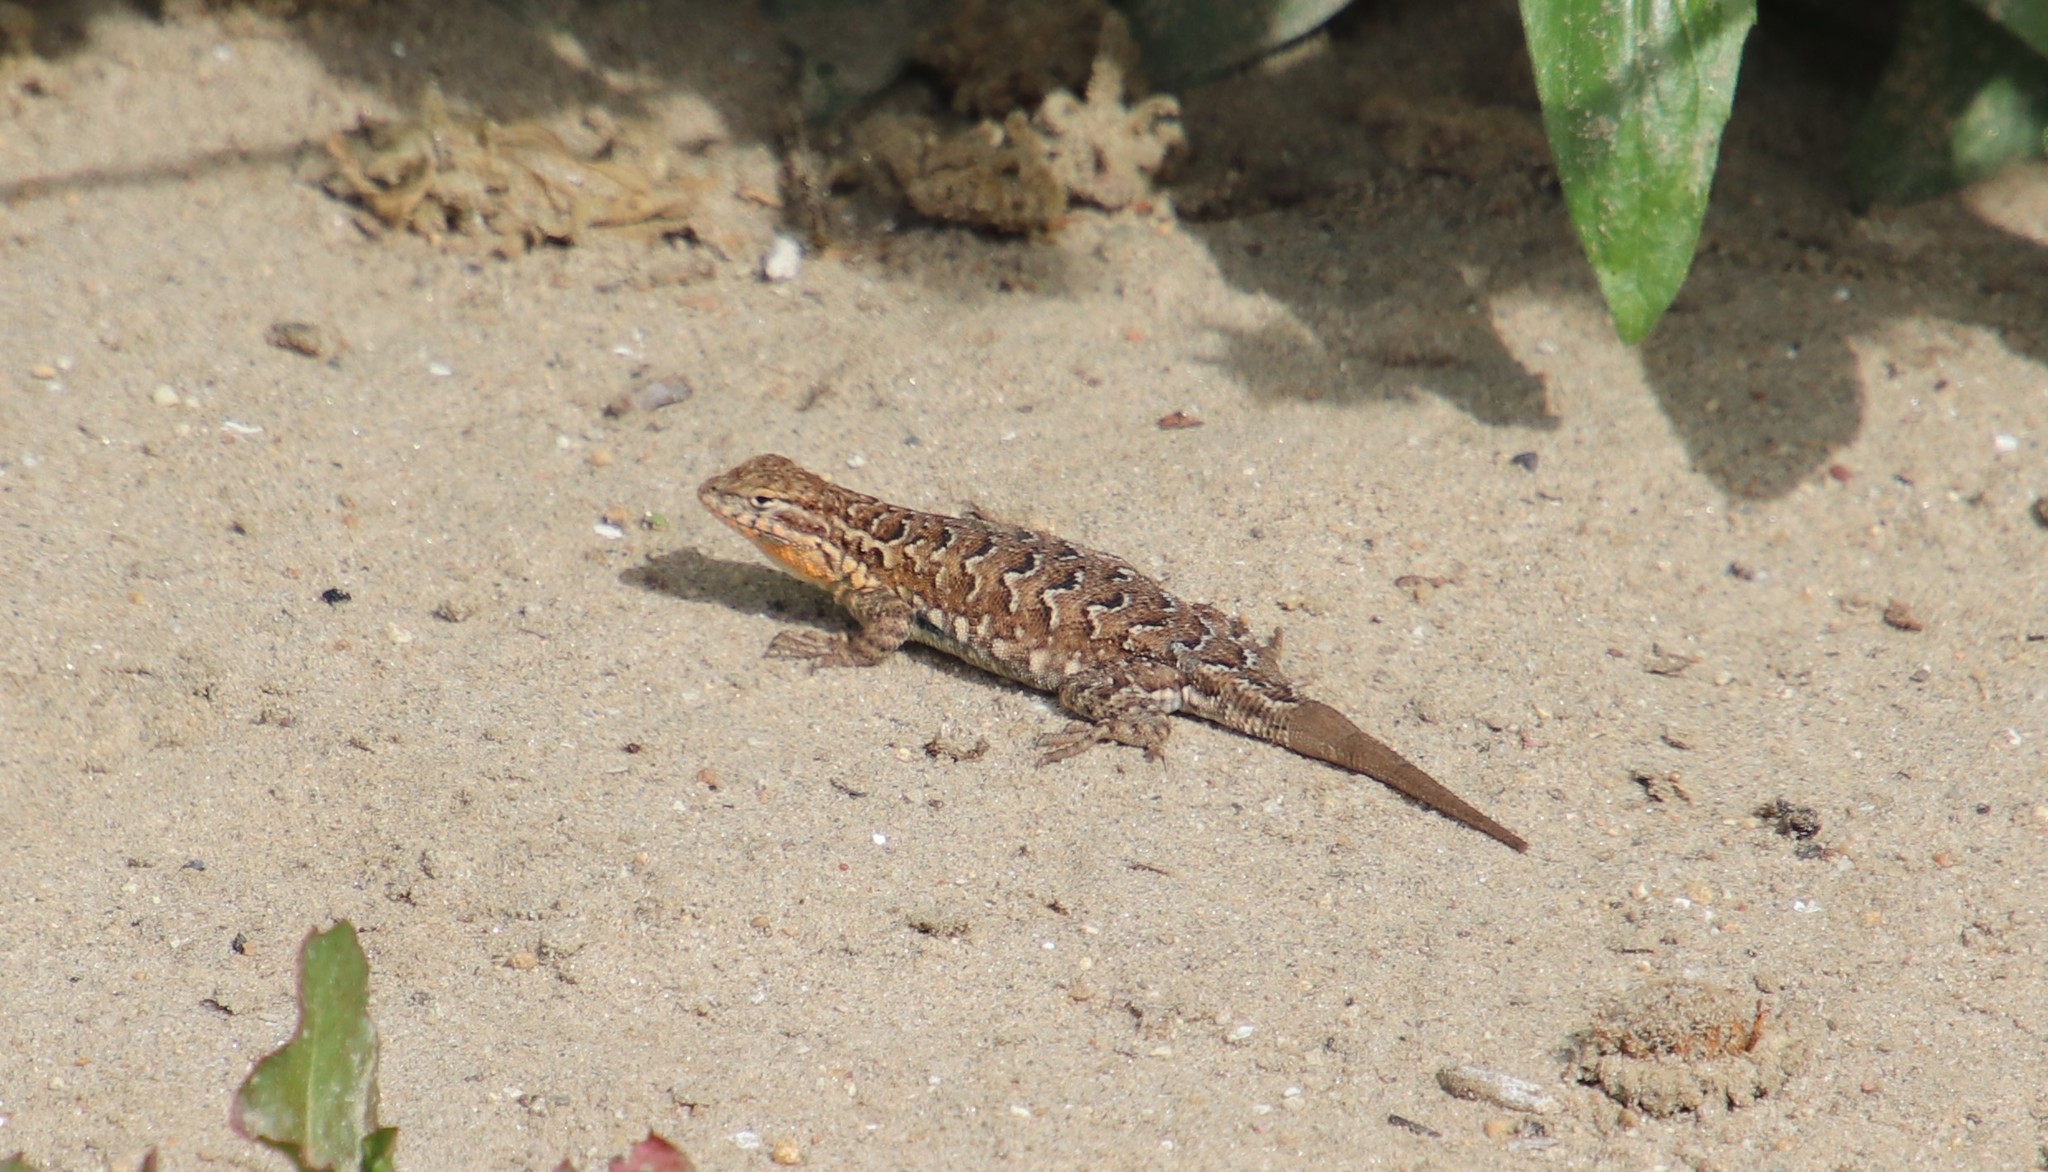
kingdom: Animalia
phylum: Chordata
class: Squamata
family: Phrynosomatidae
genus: Uta
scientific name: Uta stansburiana
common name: Side-blotched lizard
